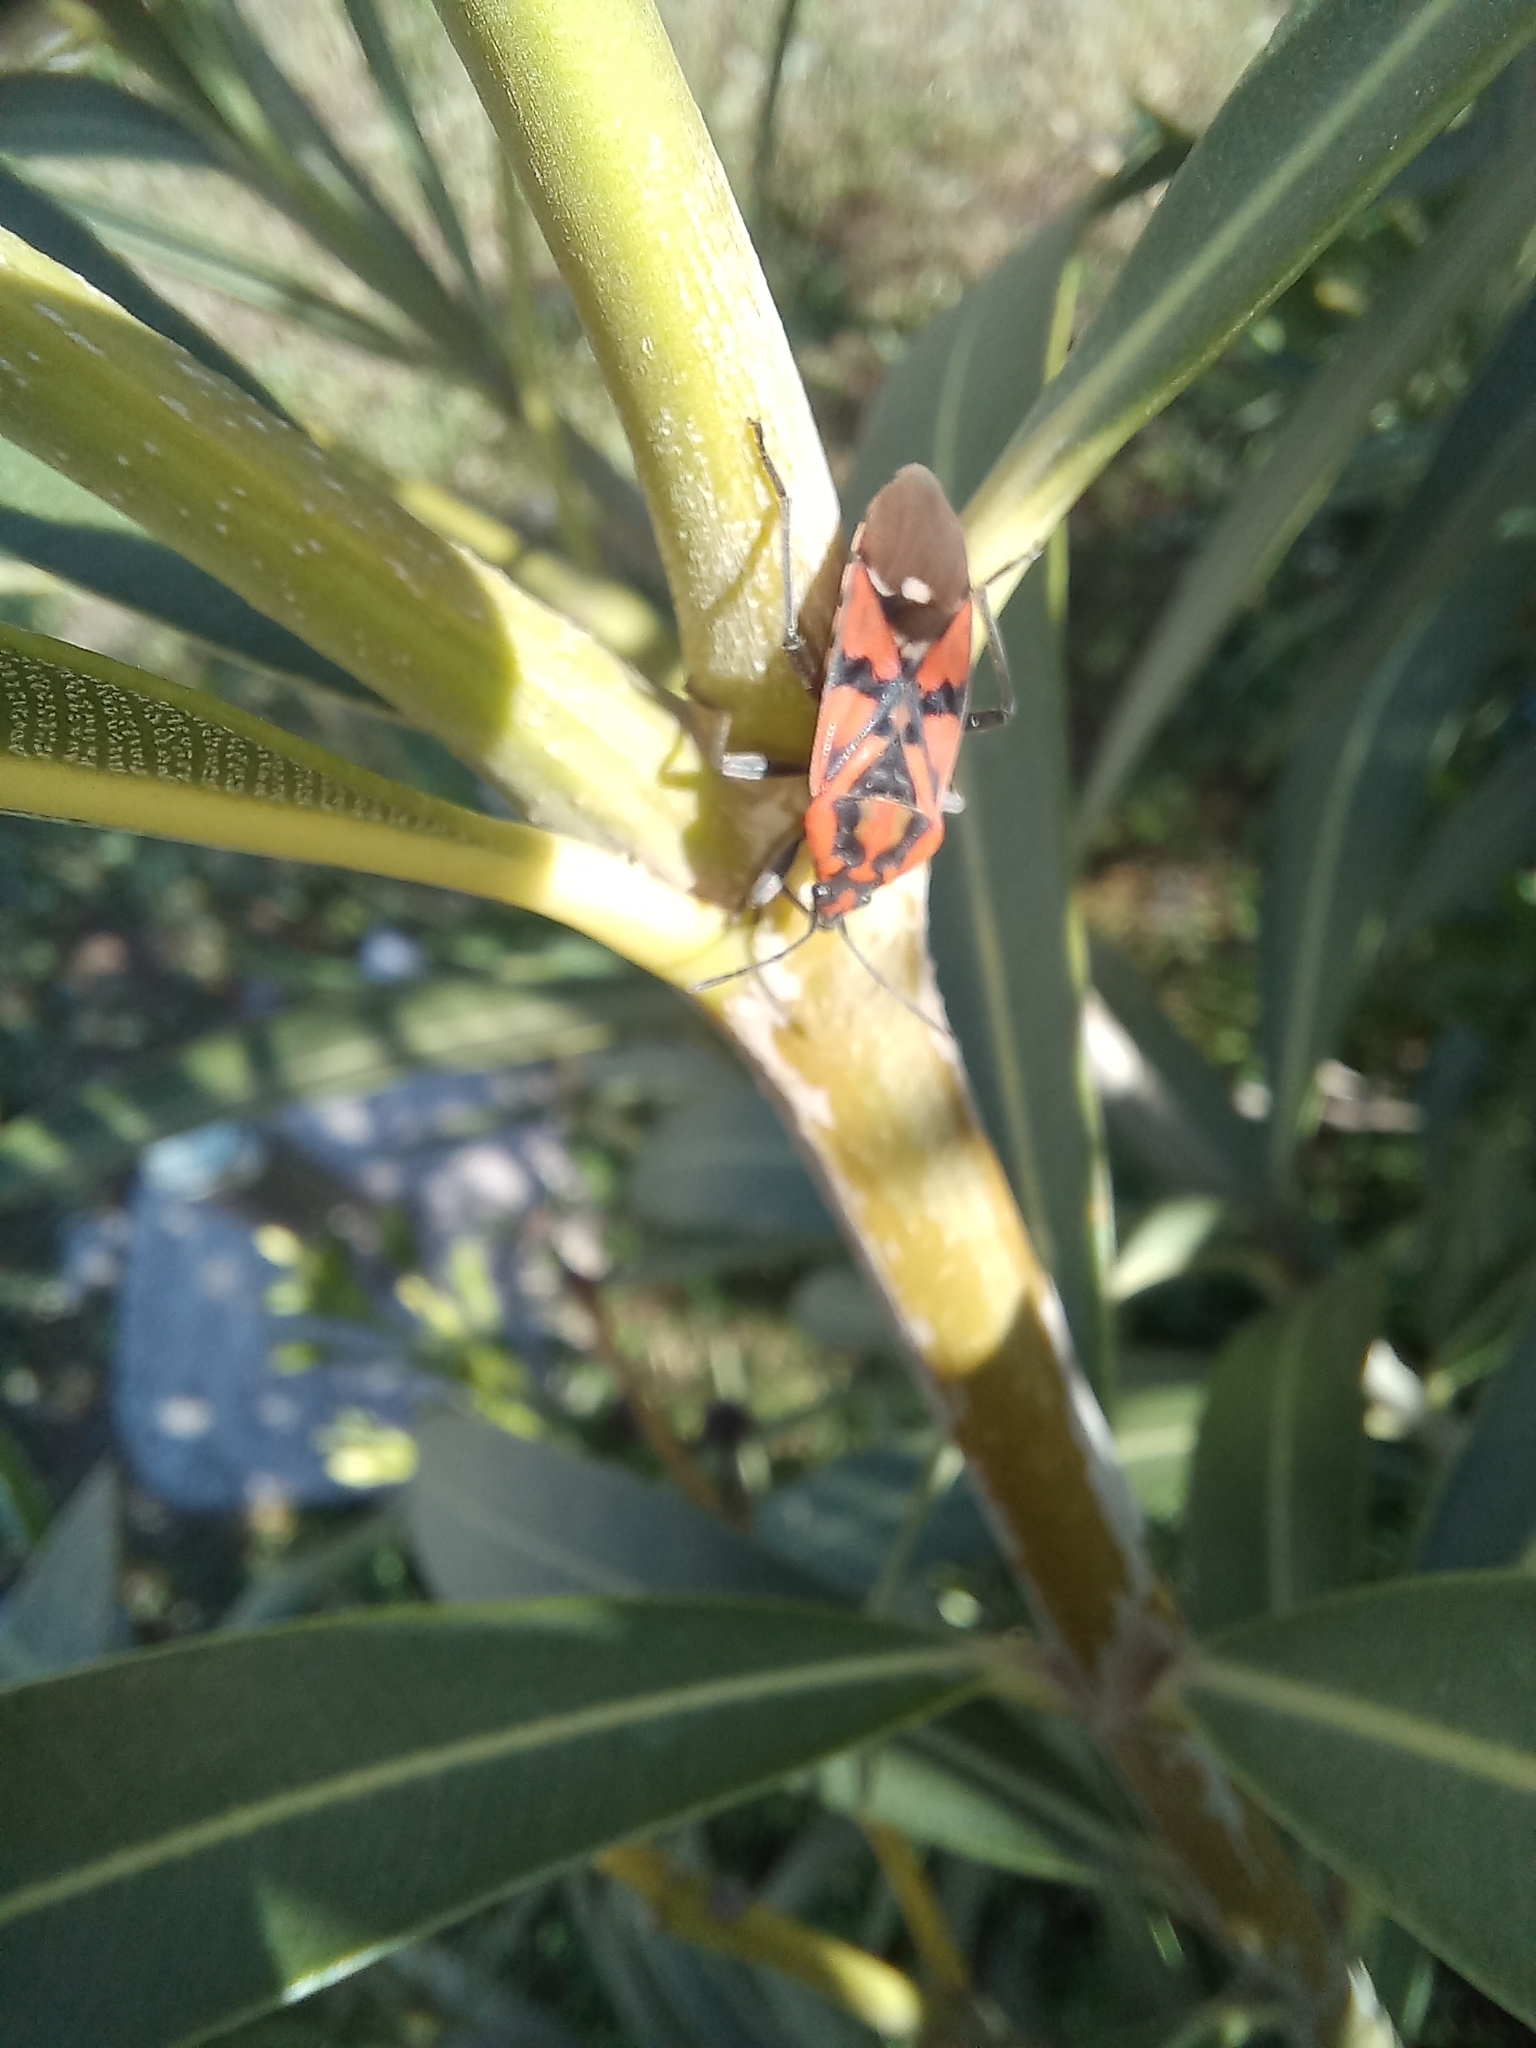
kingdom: Animalia
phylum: Arthropoda
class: Insecta
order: Hemiptera
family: Lygaeidae
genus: Spilostethus
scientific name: Spilostethus pandurus
